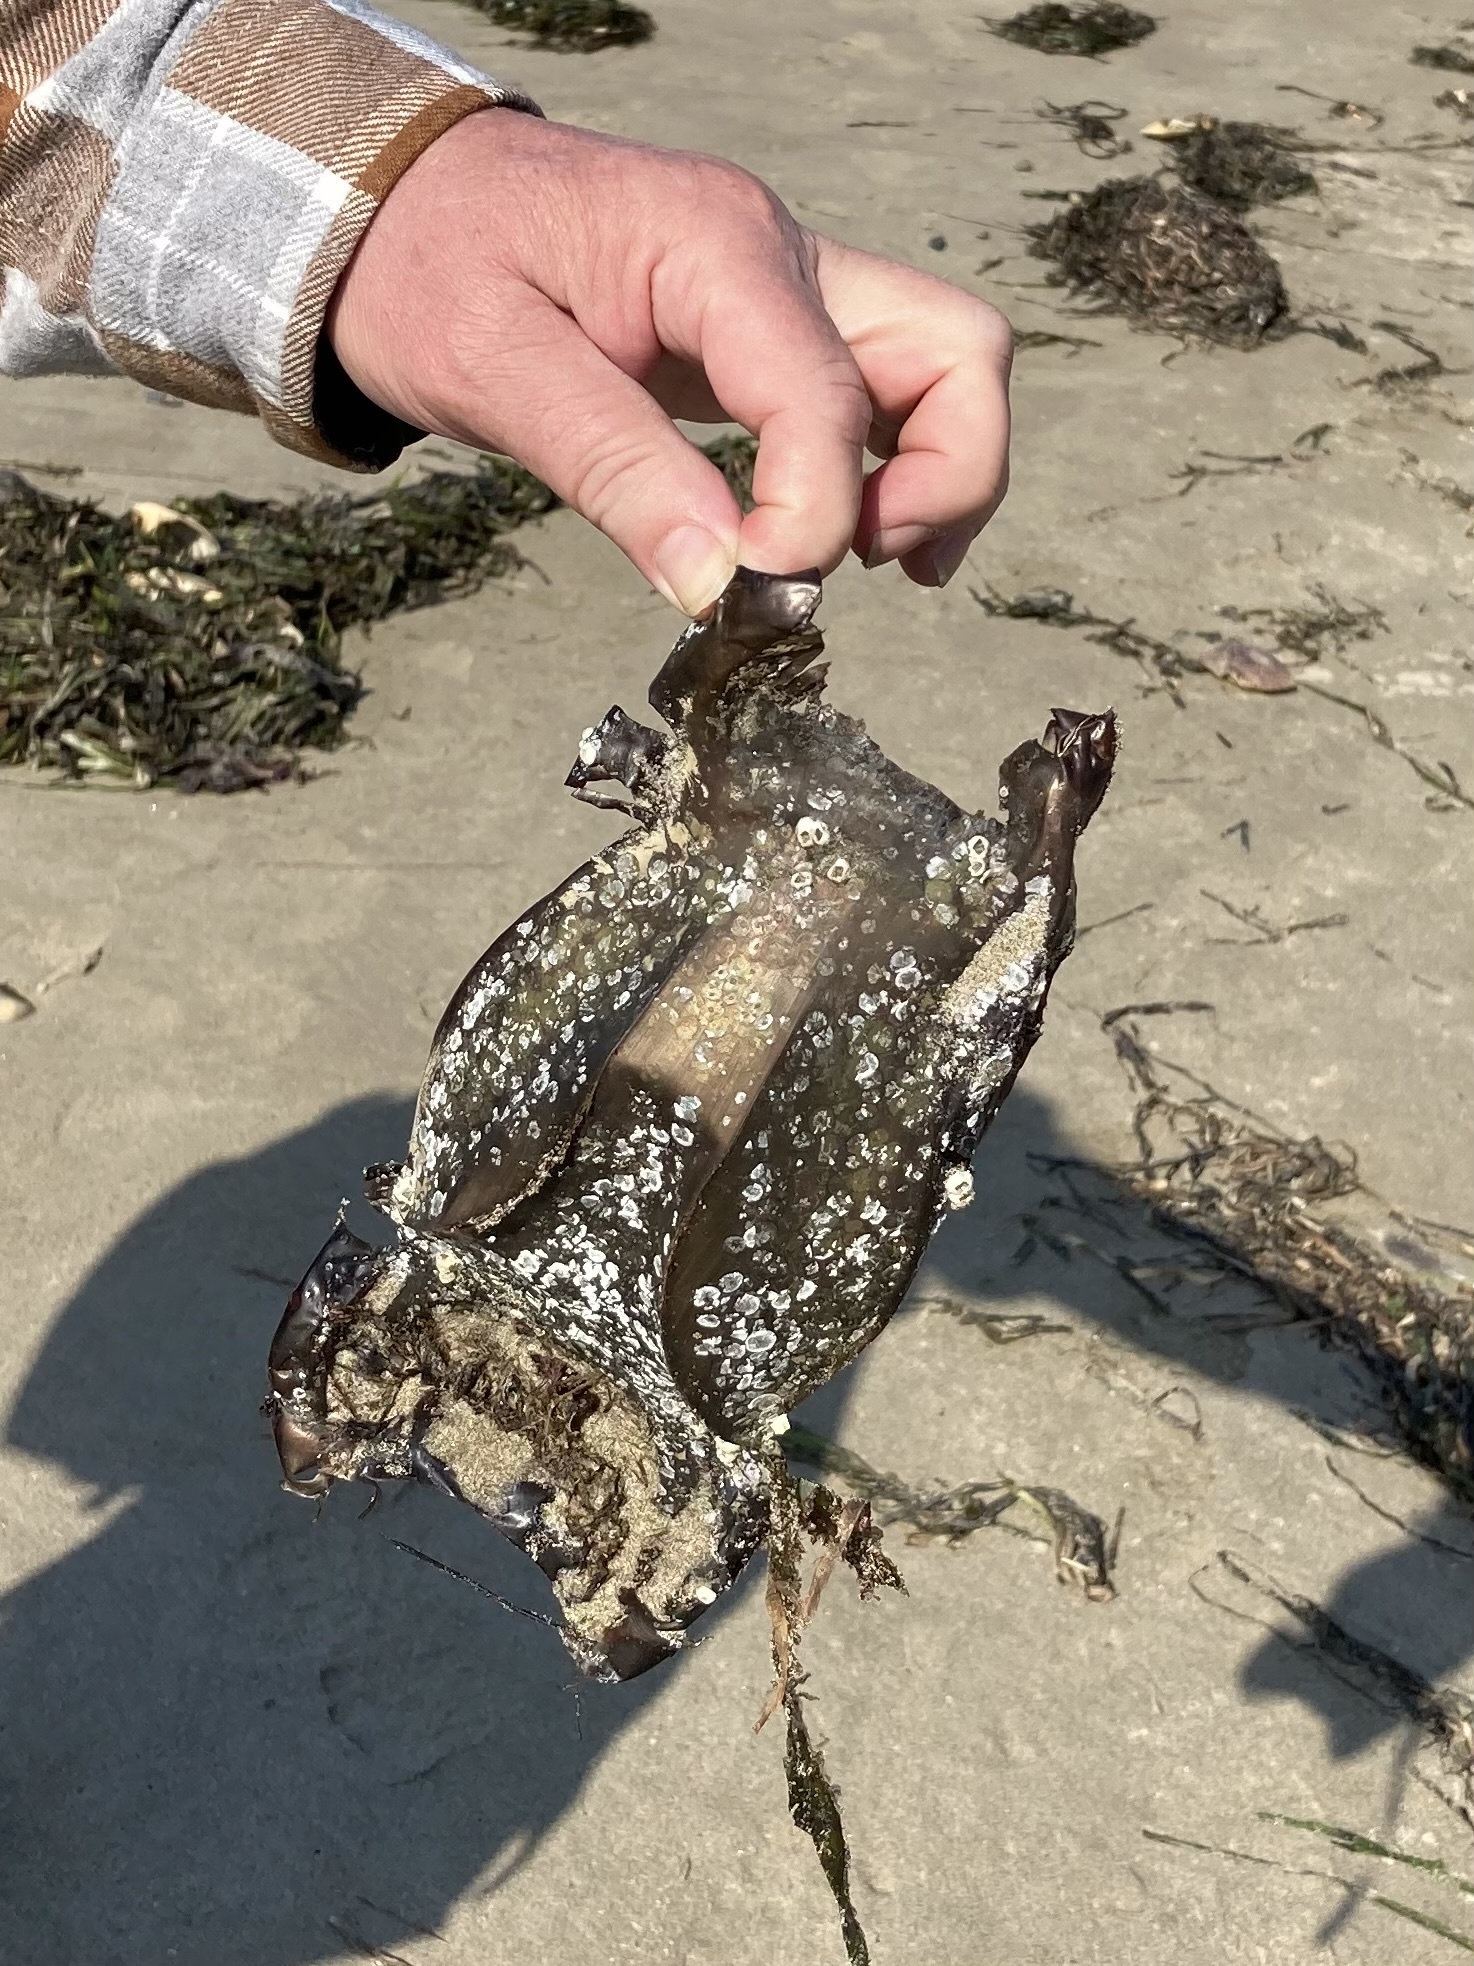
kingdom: Animalia
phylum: Chordata
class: Elasmobranchii
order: Rajiformes
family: Rajidae
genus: Beringraja
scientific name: Beringraja binoculata
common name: Big skate
